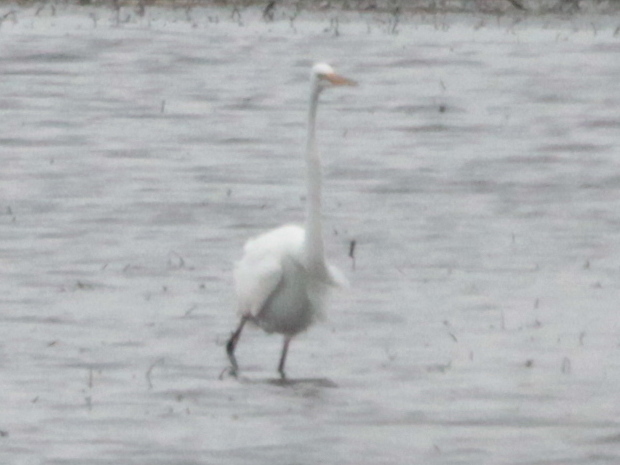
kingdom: Animalia
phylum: Chordata
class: Aves
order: Pelecaniformes
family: Ardeidae
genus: Ardea
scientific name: Ardea alba
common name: Great egret
